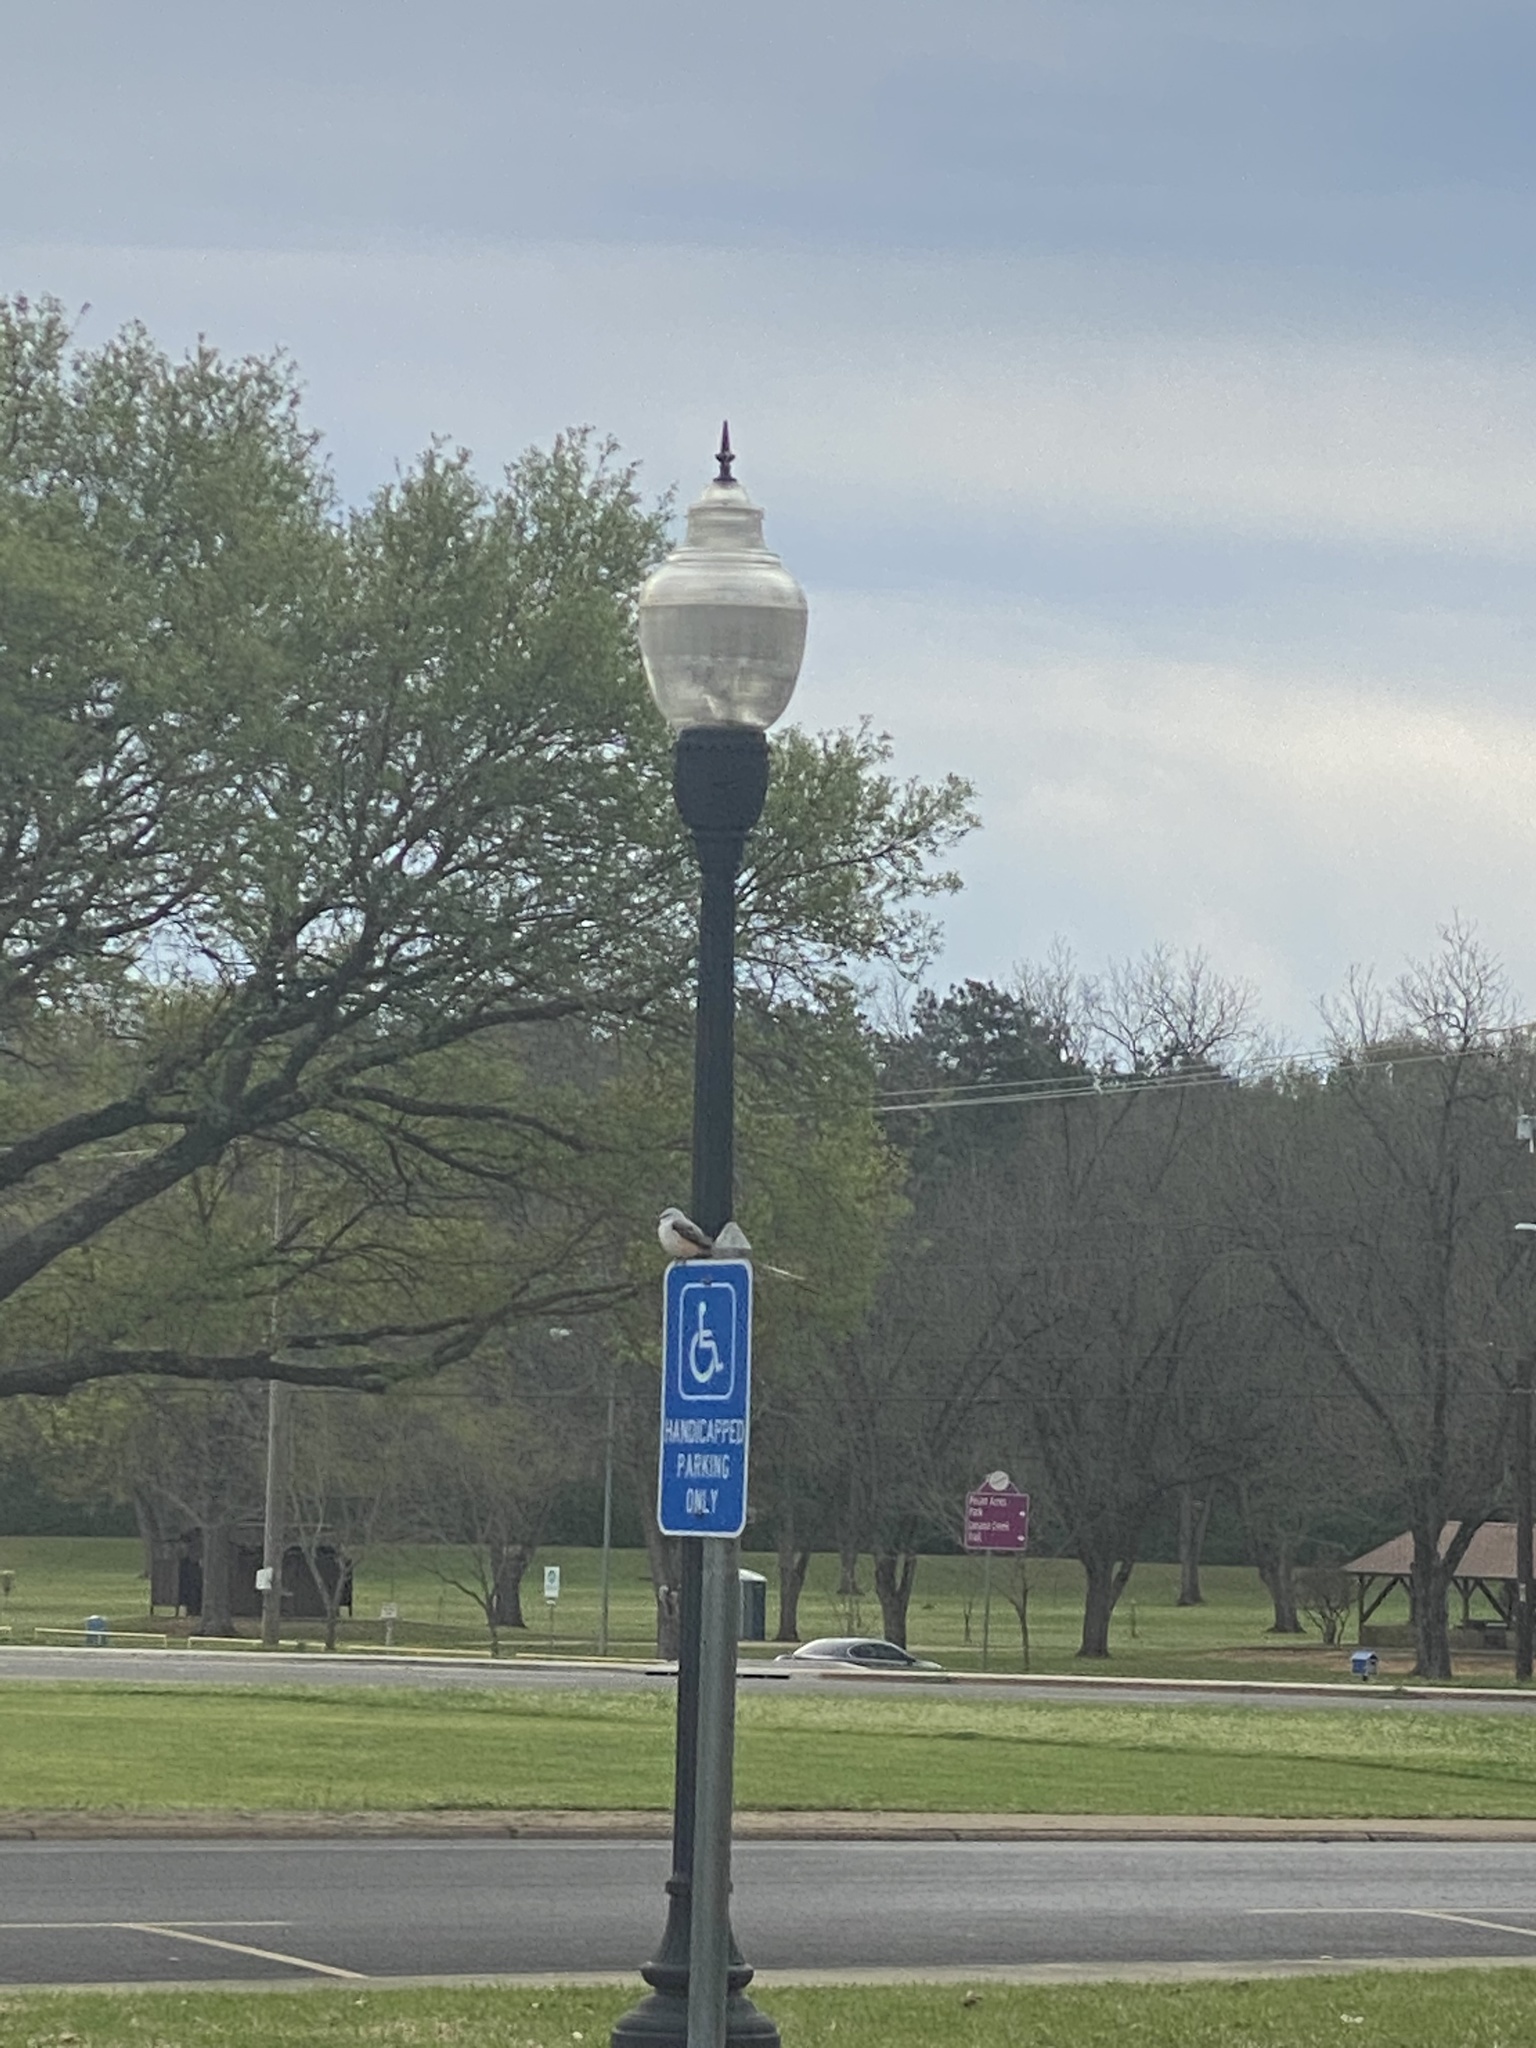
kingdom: Animalia
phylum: Chordata
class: Aves
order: Passeriformes
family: Tyrannidae
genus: Tyrannus
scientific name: Tyrannus forficatus
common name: Scissor-tailed flycatcher
